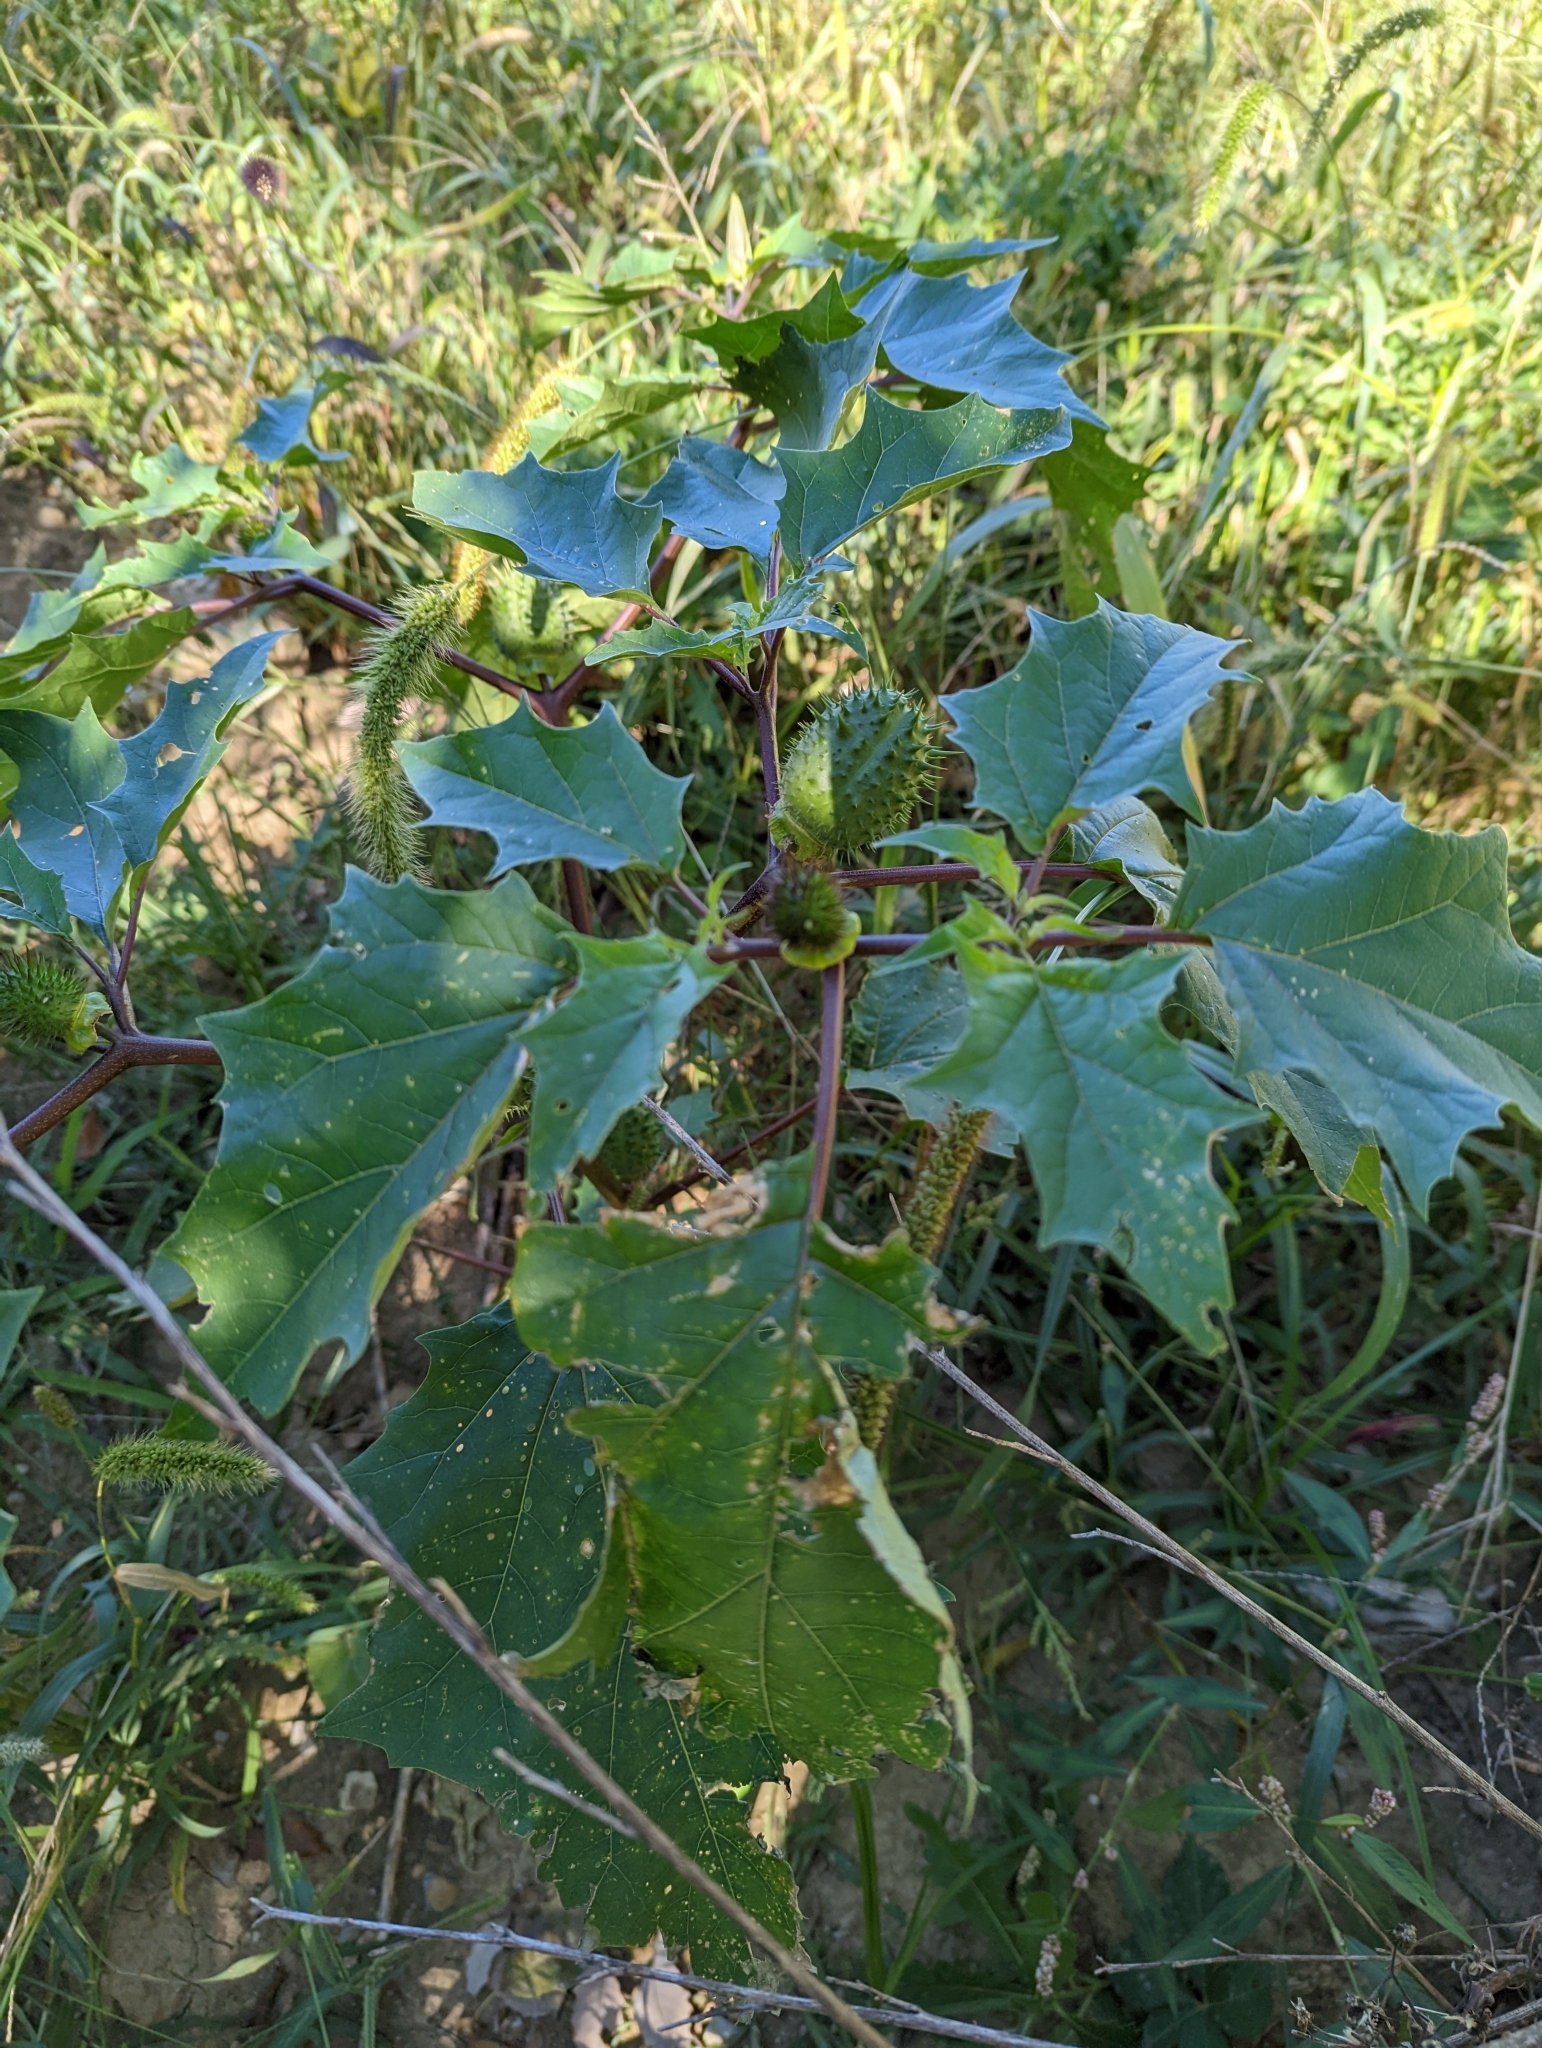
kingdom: Plantae
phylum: Tracheophyta
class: Magnoliopsida
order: Solanales
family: Solanaceae
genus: Datura
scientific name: Datura stramonium
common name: Thorn-apple
